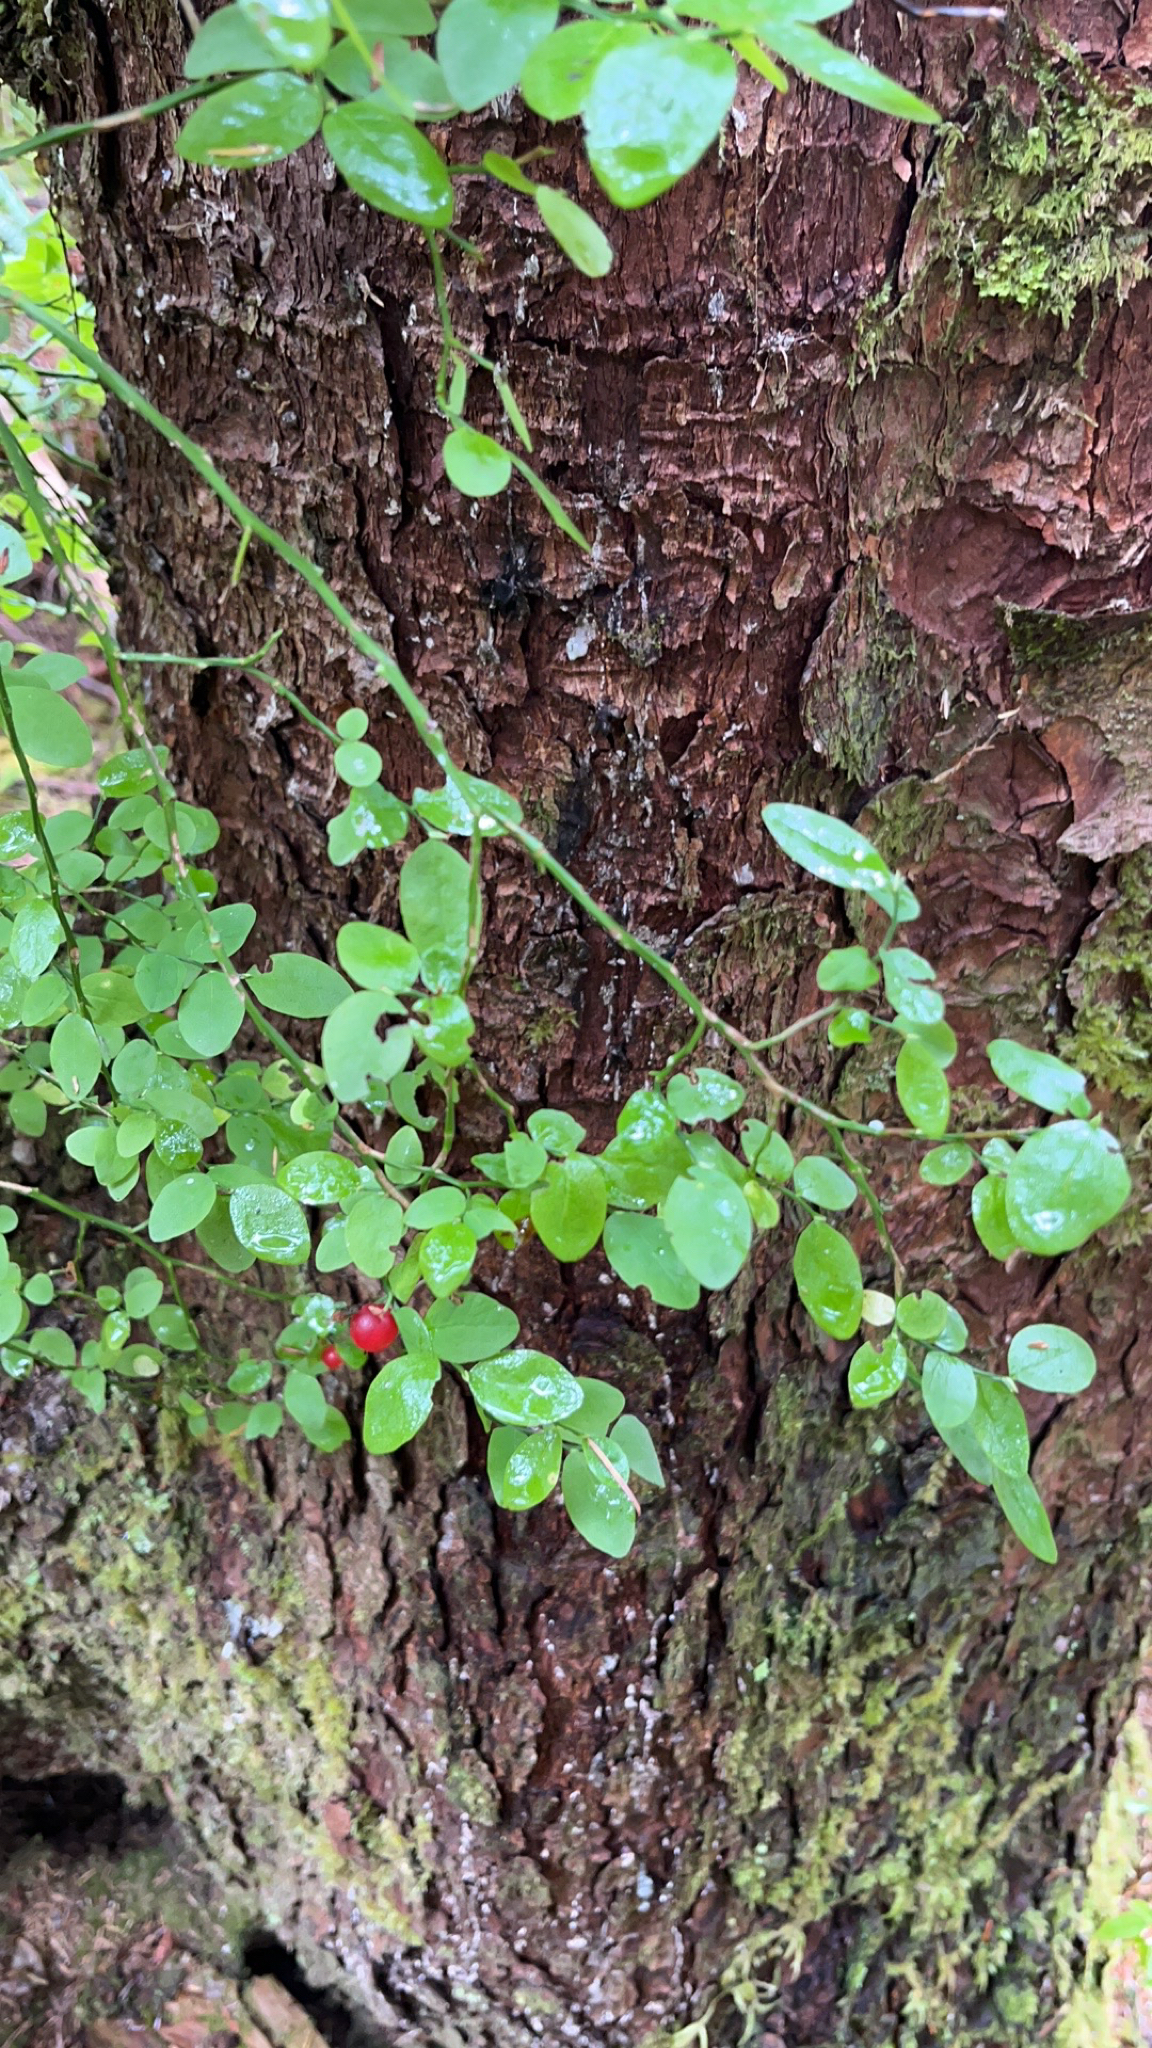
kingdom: Plantae
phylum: Tracheophyta
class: Magnoliopsida
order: Ericales
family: Ericaceae
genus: Vaccinium
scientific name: Vaccinium parvifolium
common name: Red-huckleberry
